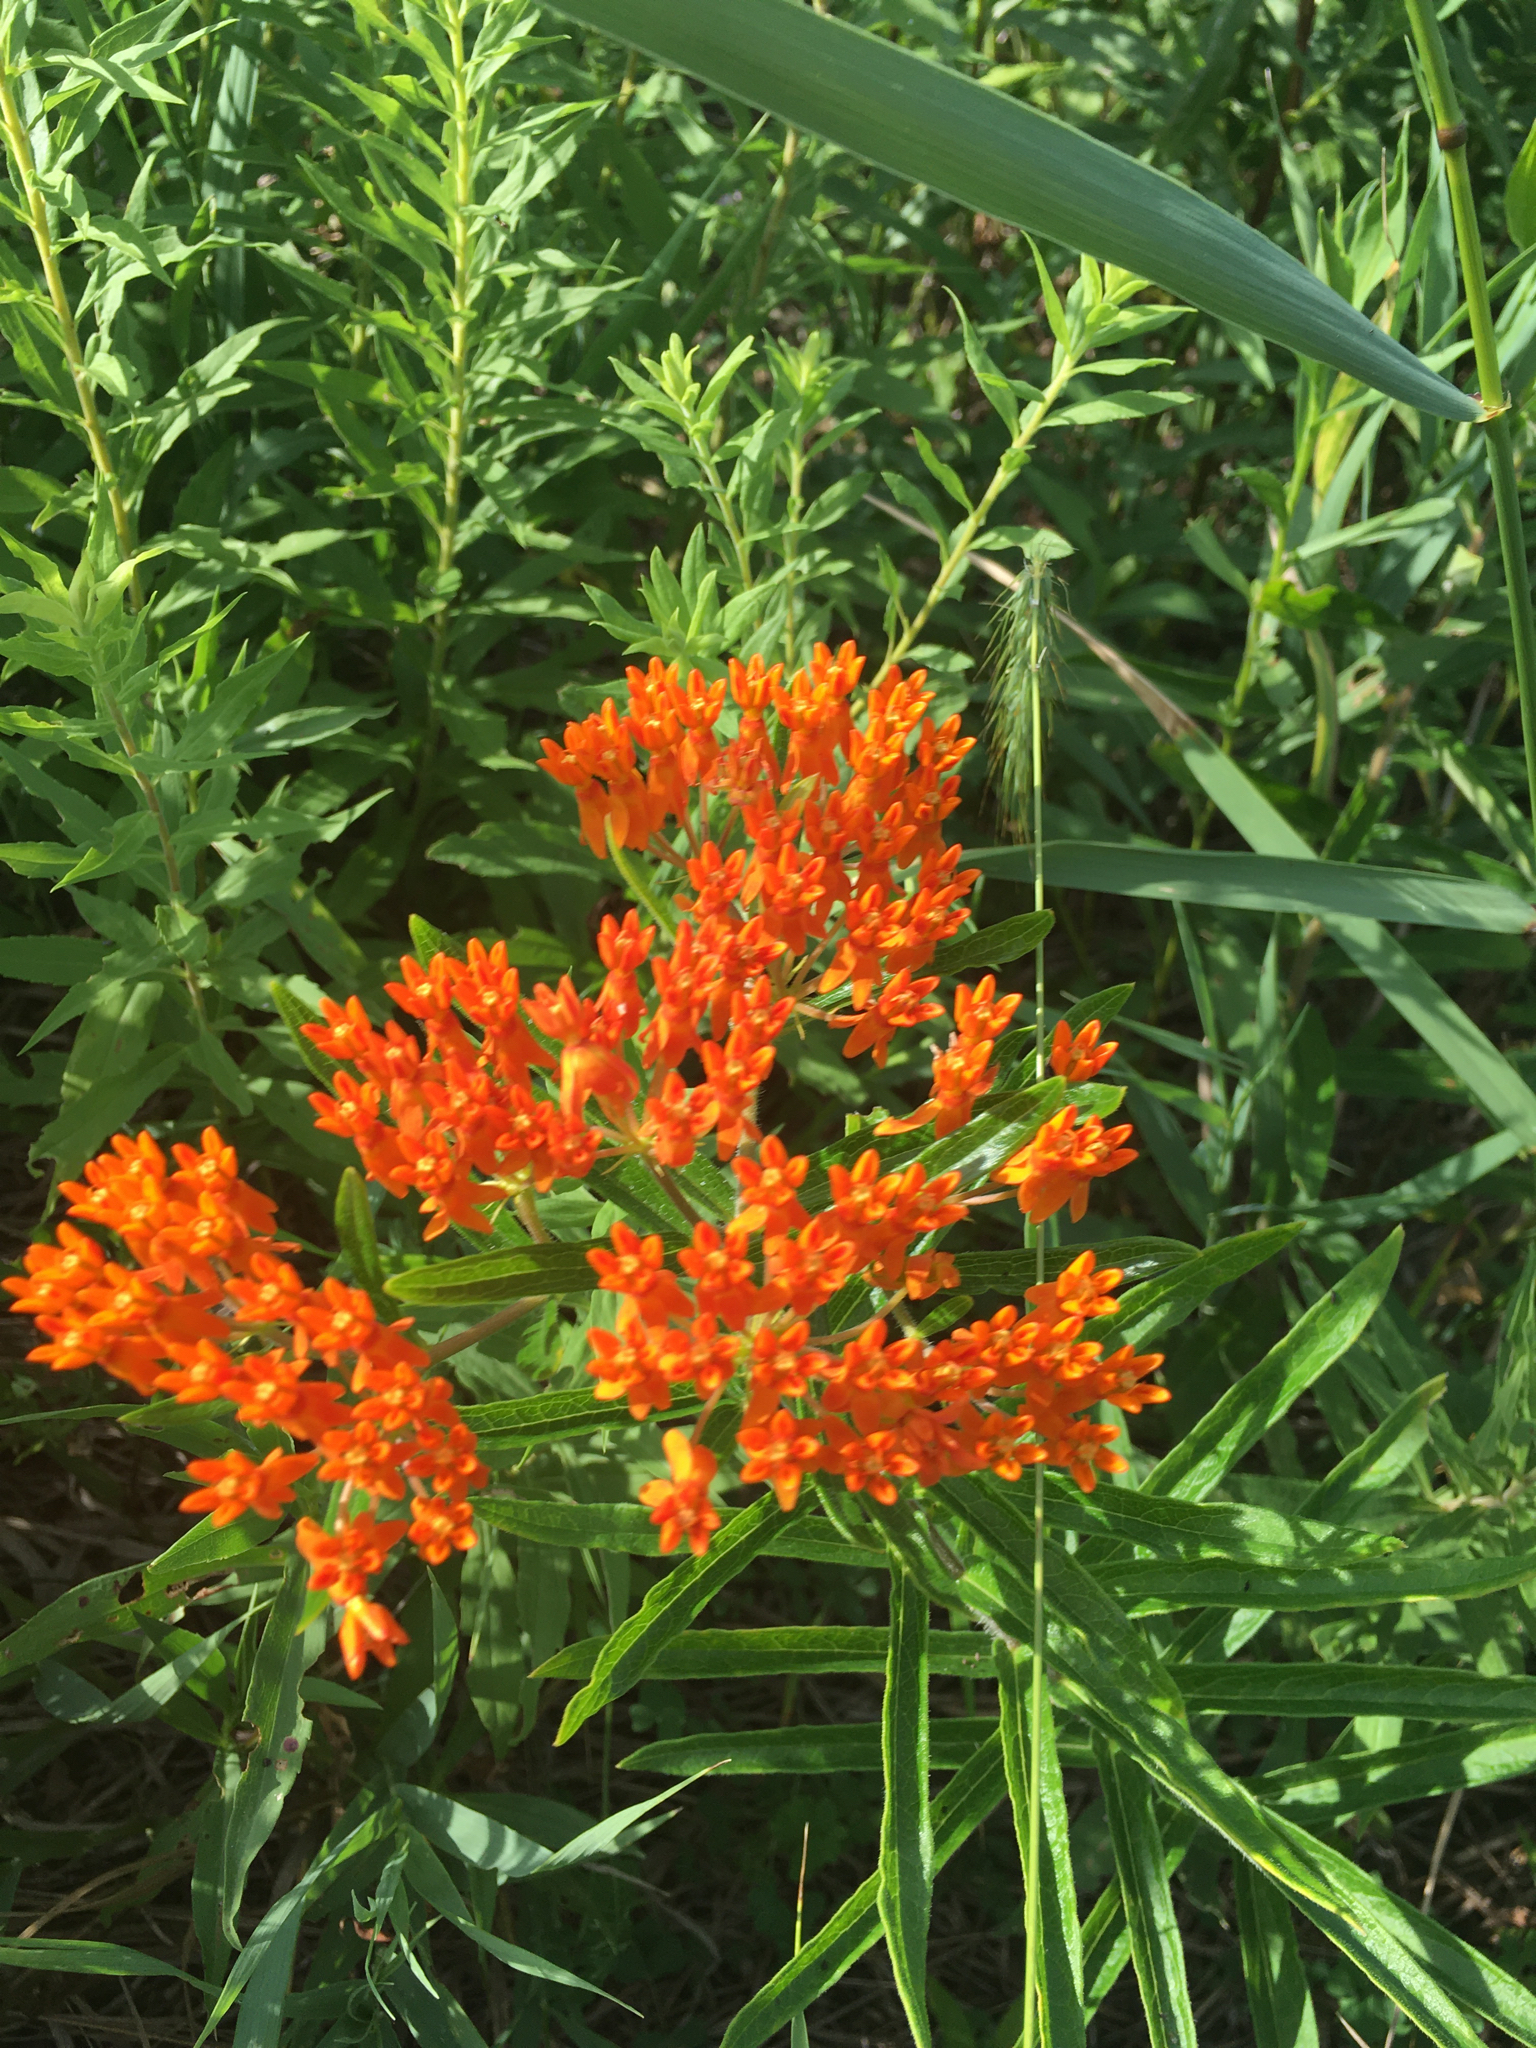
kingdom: Plantae
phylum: Tracheophyta
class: Magnoliopsida
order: Gentianales
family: Apocynaceae
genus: Asclepias
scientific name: Asclepias tuberosa
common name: Butterfly milkweed
